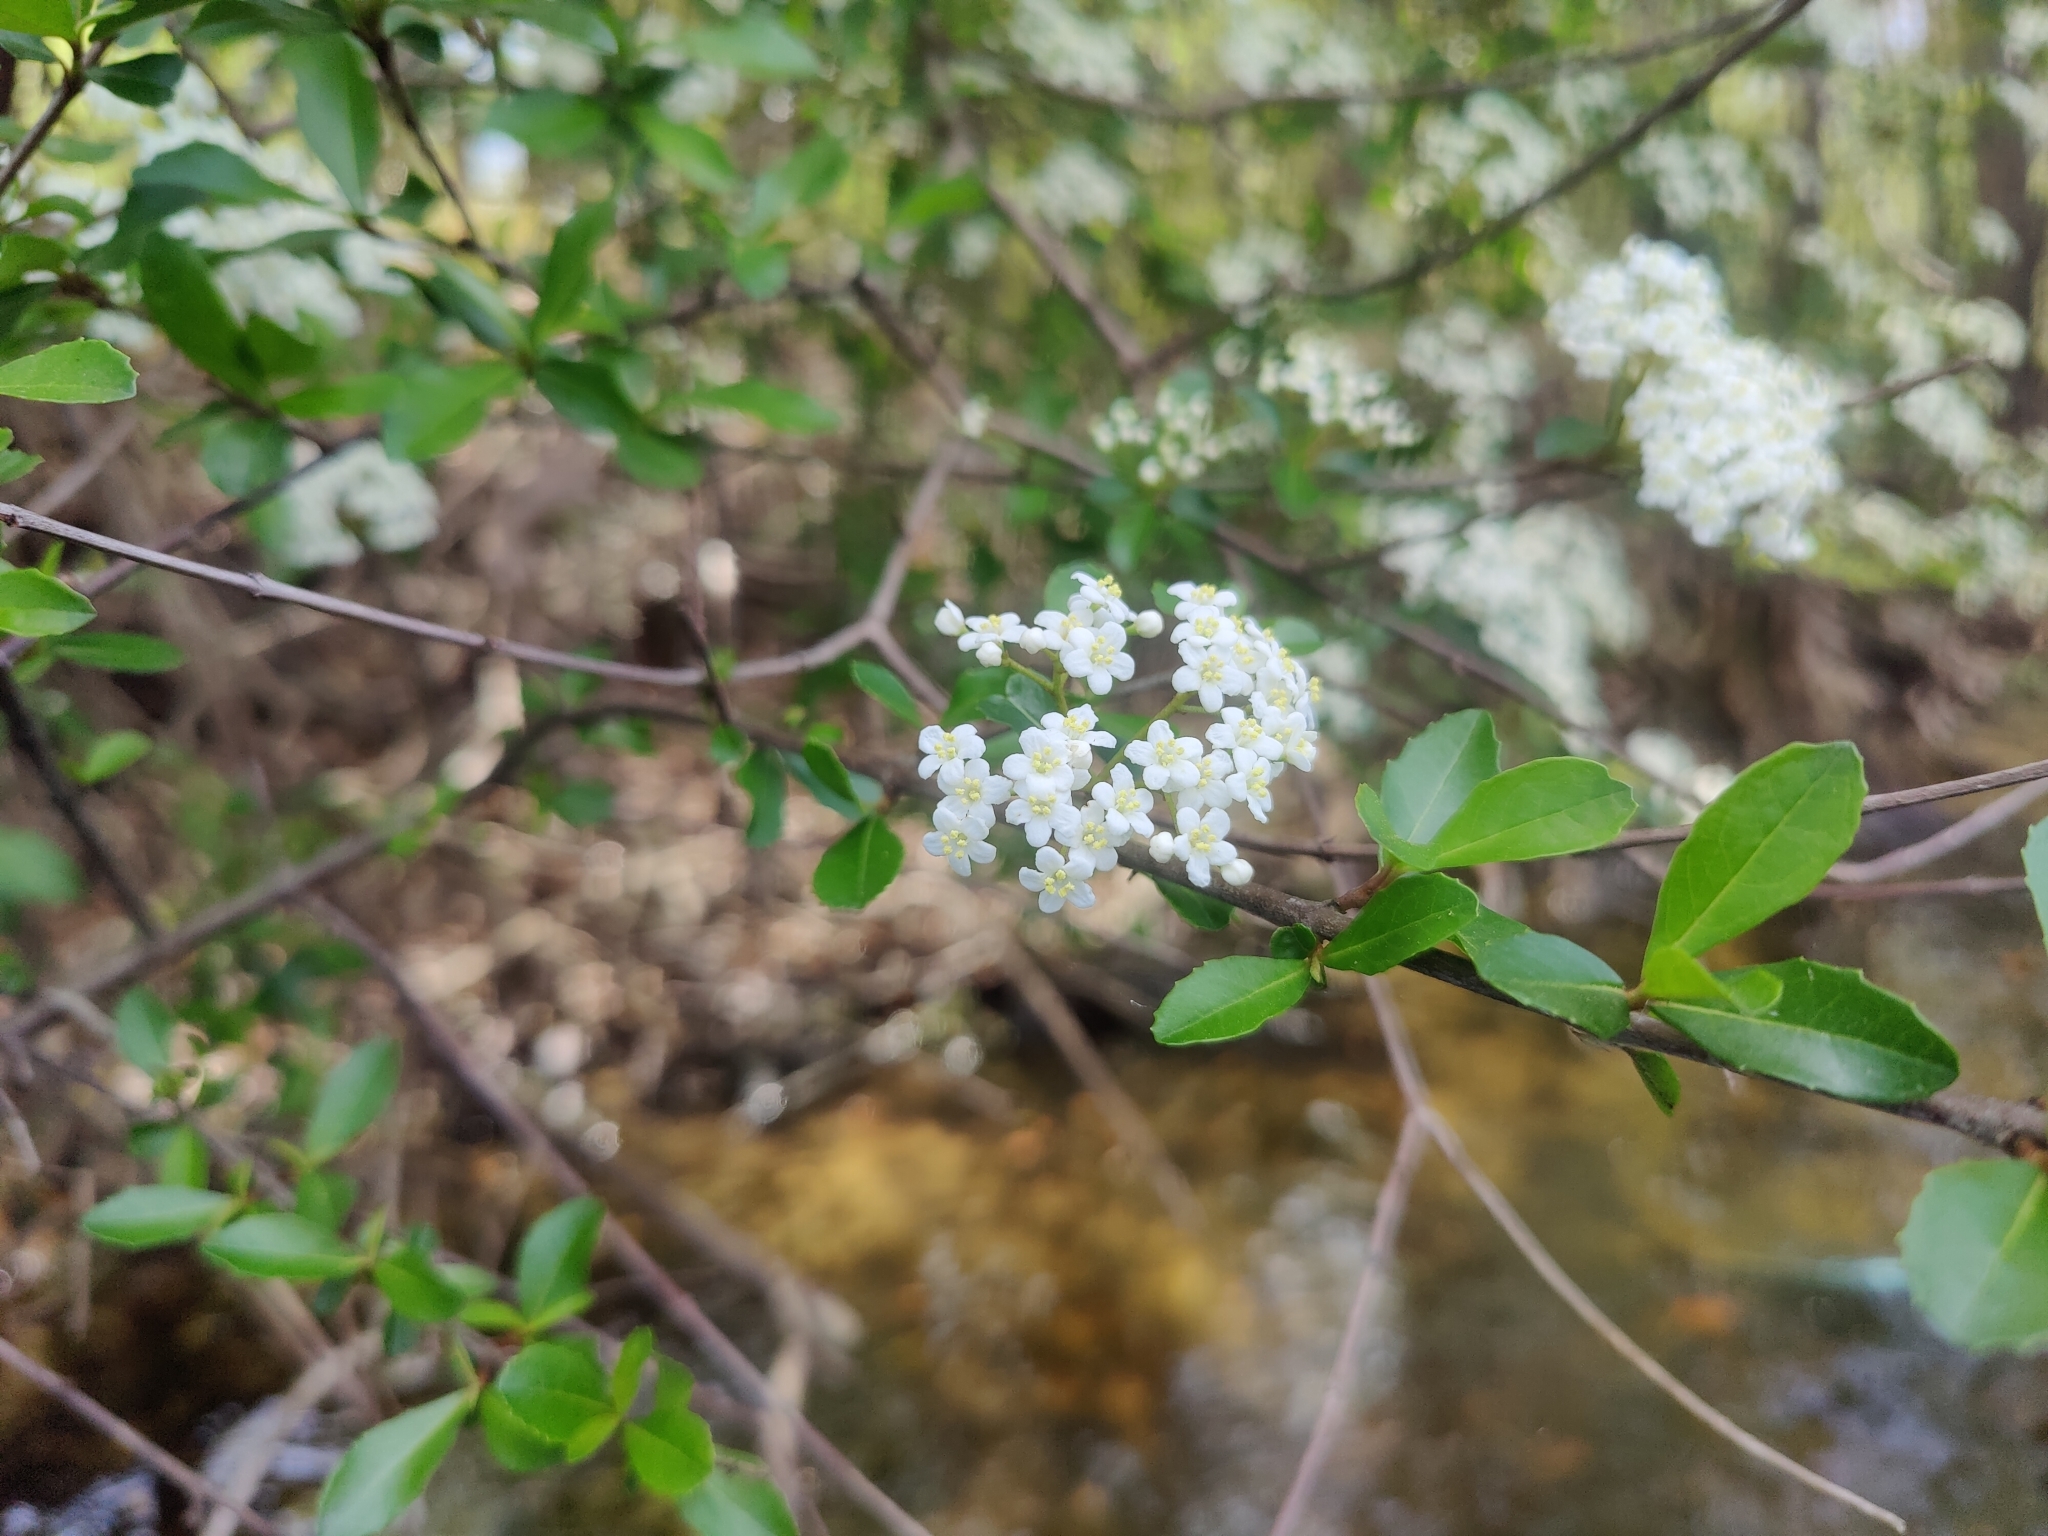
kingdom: Plantae
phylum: Tracheophyta
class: Magnoliopsida
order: Dipsacales
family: Viburnaceae
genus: Viburnum
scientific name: Viburnum obovatum
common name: Walter's viburnum
